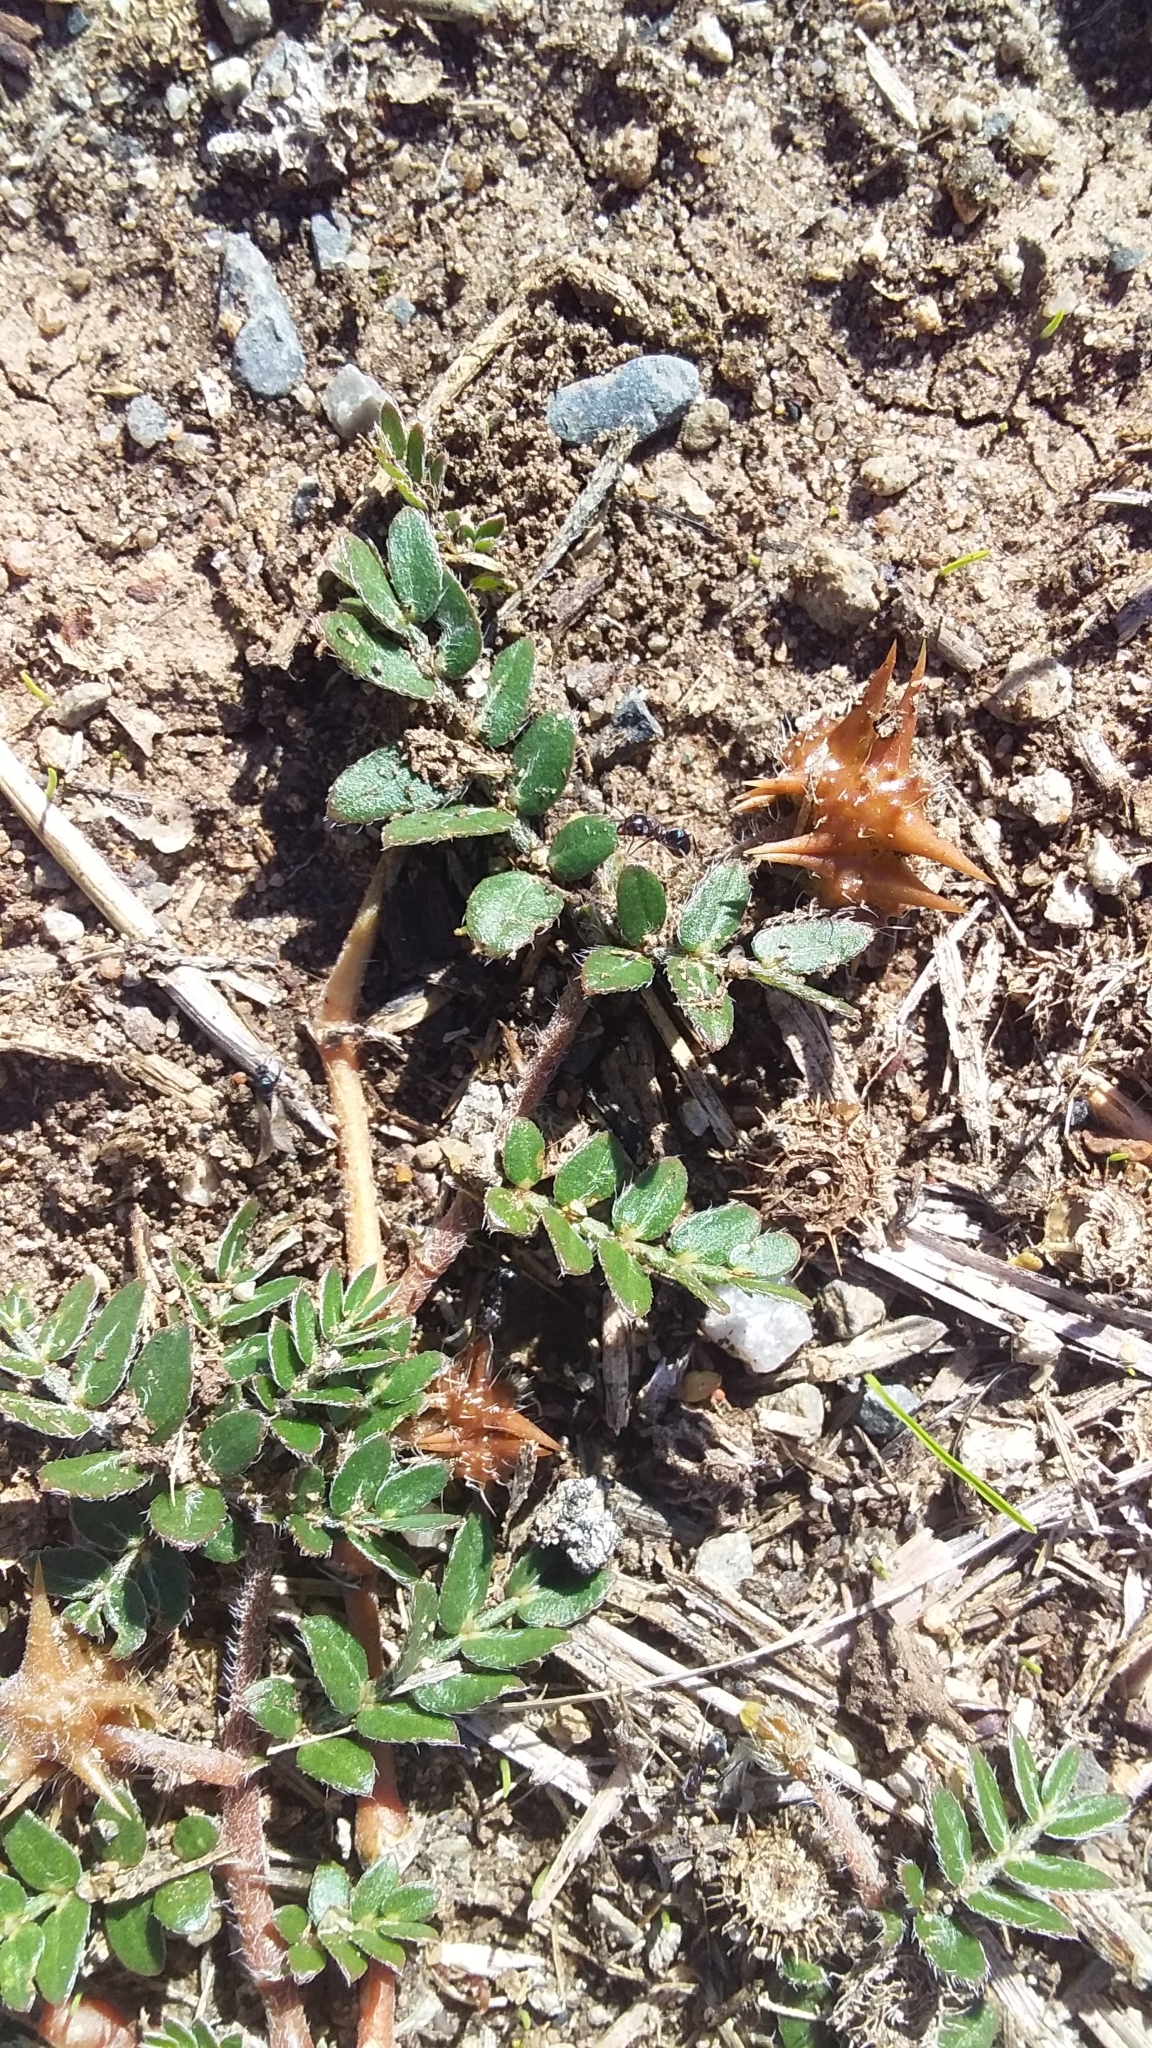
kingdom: Plantae
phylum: Tracheophyta
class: Magnoliopsida
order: Zygophyllales
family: Zygophyllaceae
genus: Tribulus
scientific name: Tribulus terrestris
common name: Puncturevine
